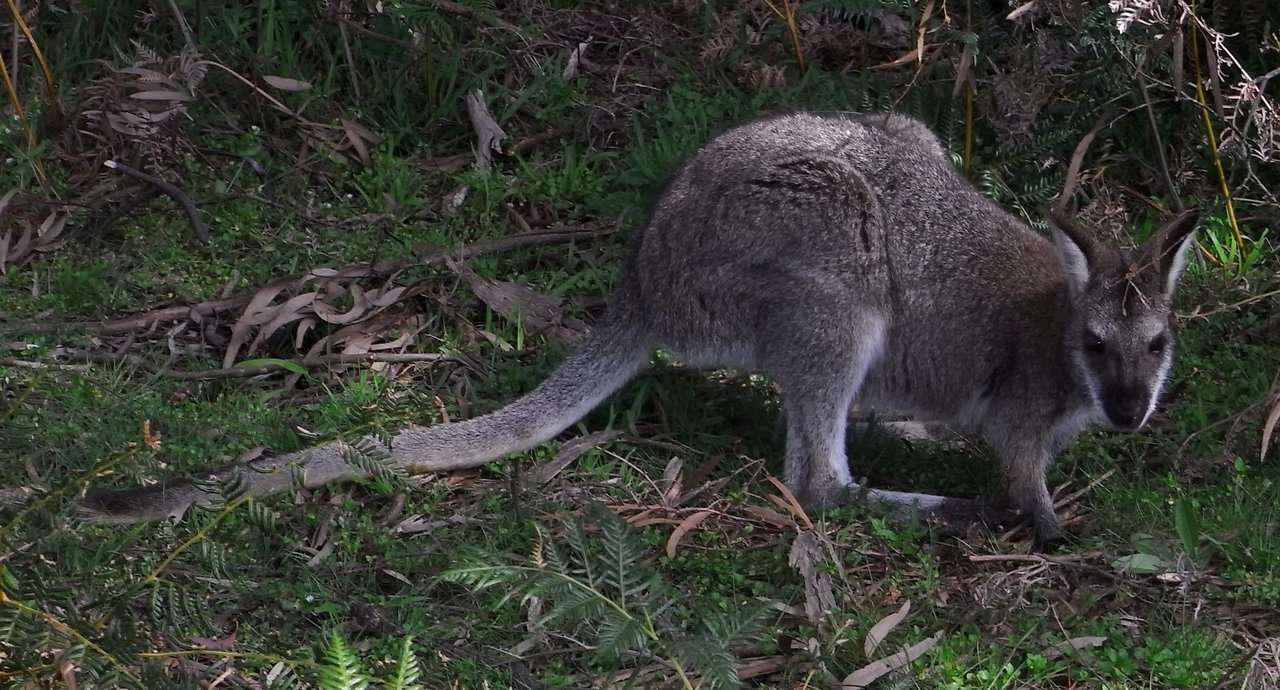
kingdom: Animalia
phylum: Chordata
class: Mammalia
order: Diprotodontia
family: Macropodidae
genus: Notamacropus
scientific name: Notamacropus rufogriseus
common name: Red-necked wallaby
